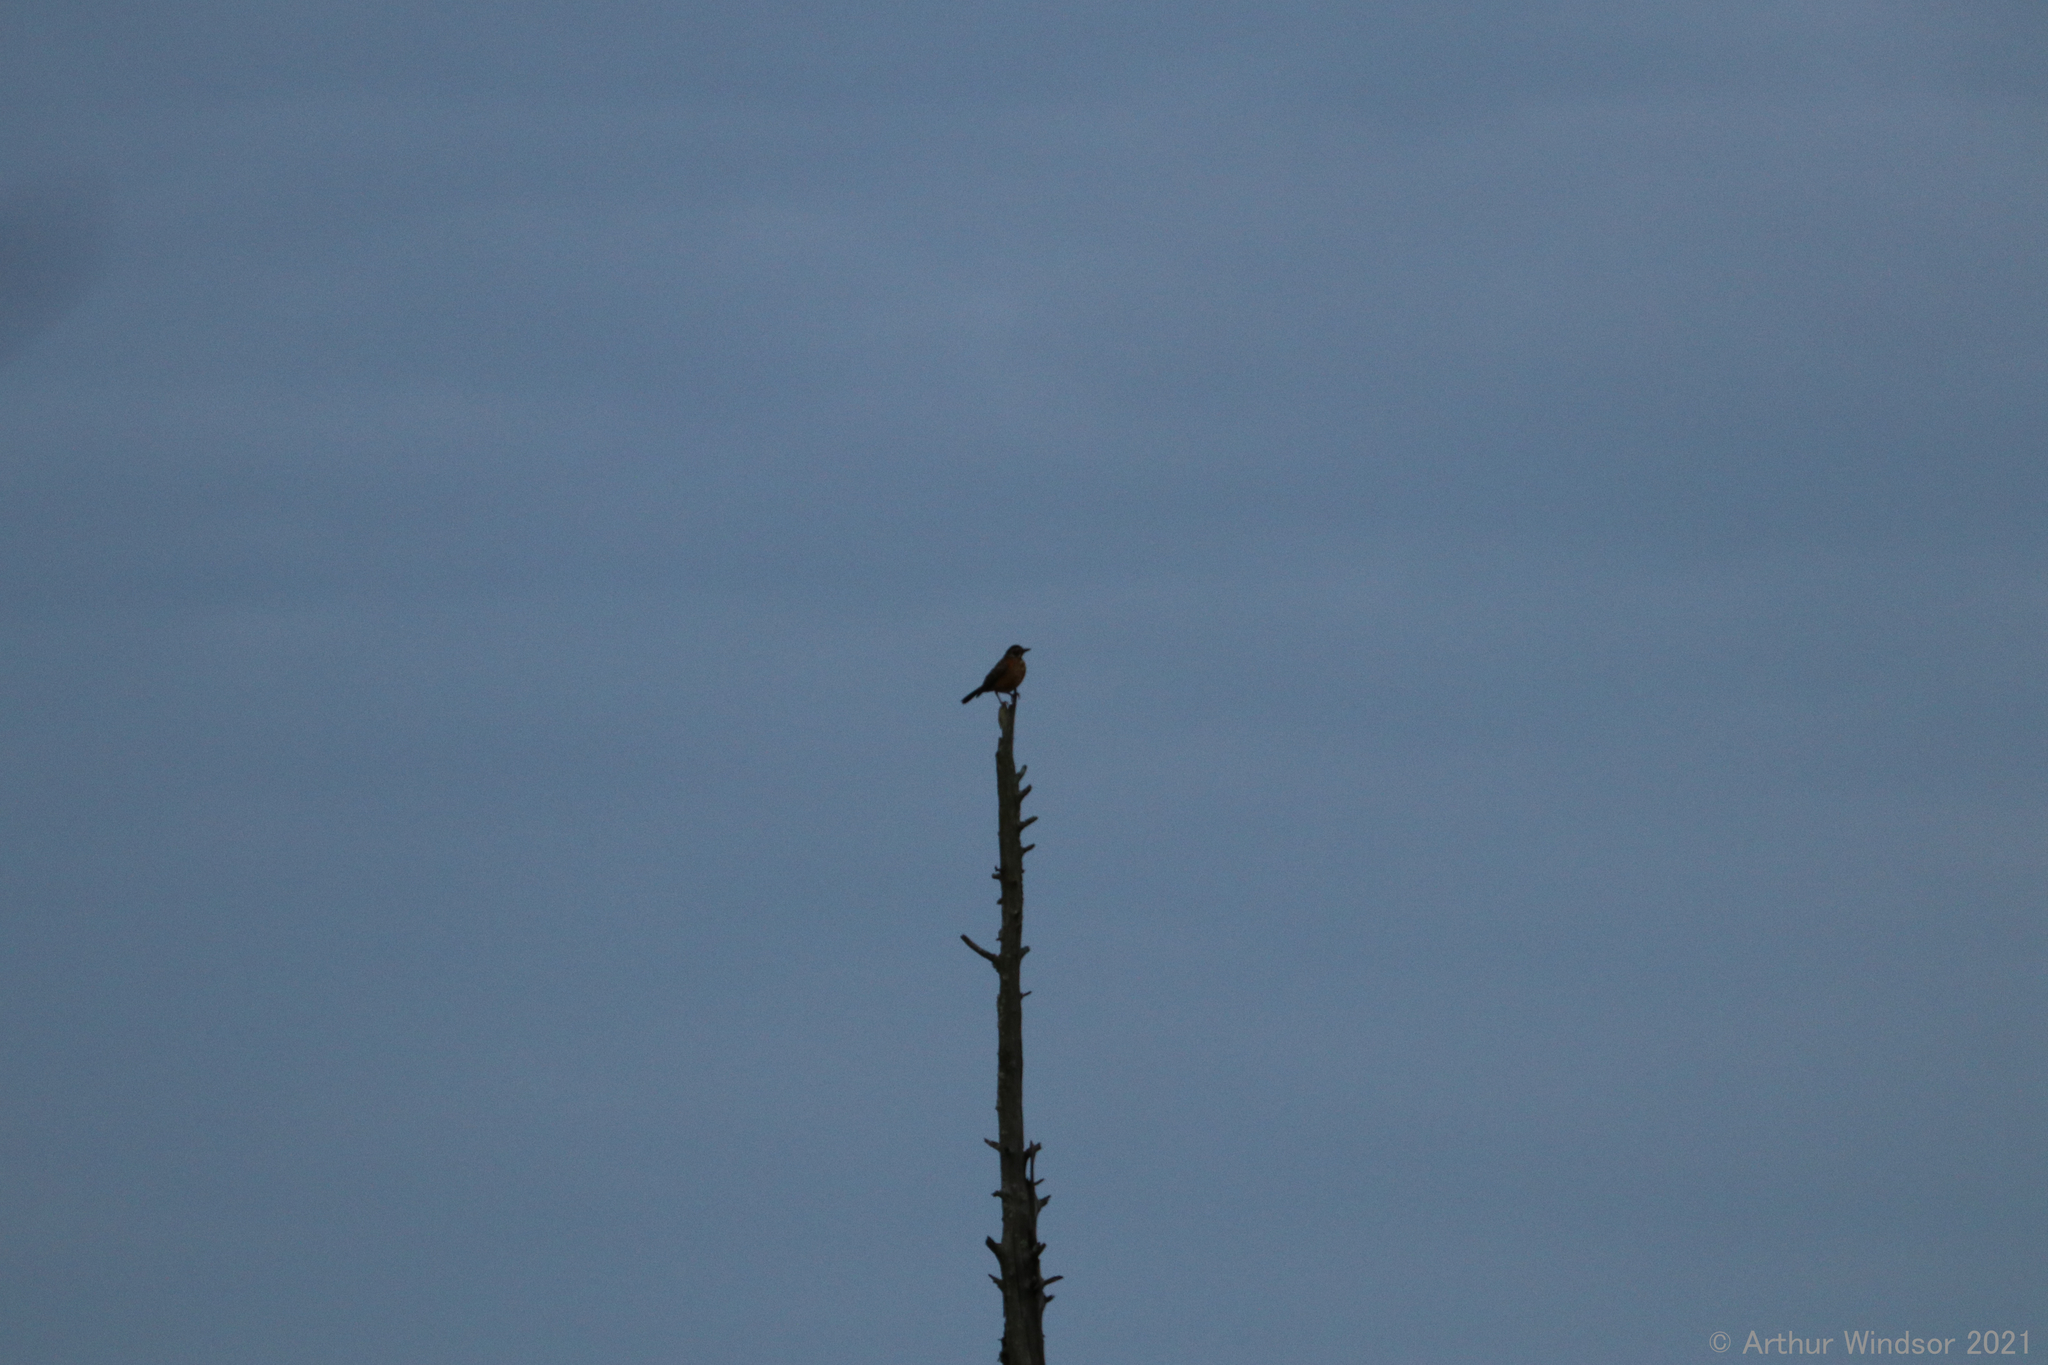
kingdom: Animalia
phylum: Chordata
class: Aves
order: Passeriformes
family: Turdidae
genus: Turdus
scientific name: Turdus migratorius
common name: American robin
